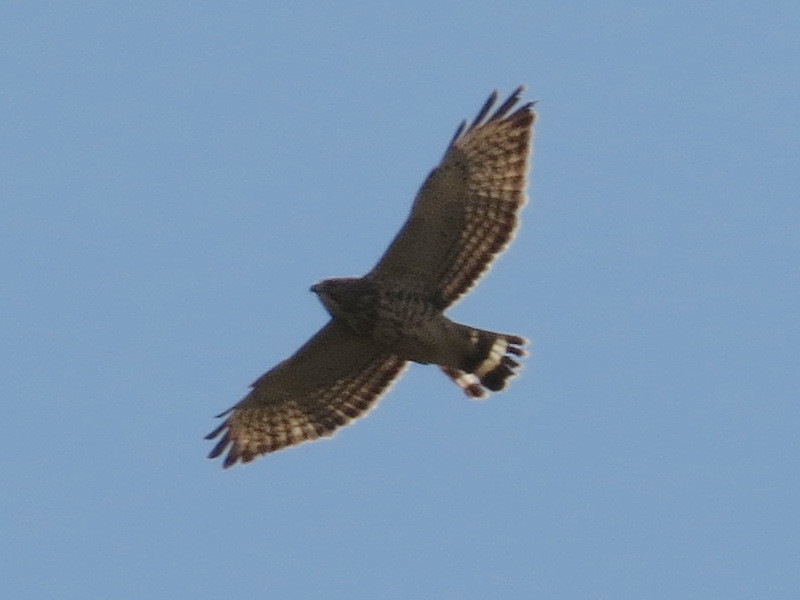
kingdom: Animalia
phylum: Chordata
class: Aves
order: Accipitriformes
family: Accipitridae
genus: Buteo
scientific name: Buteo platypterus
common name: Broad-winged hawk
